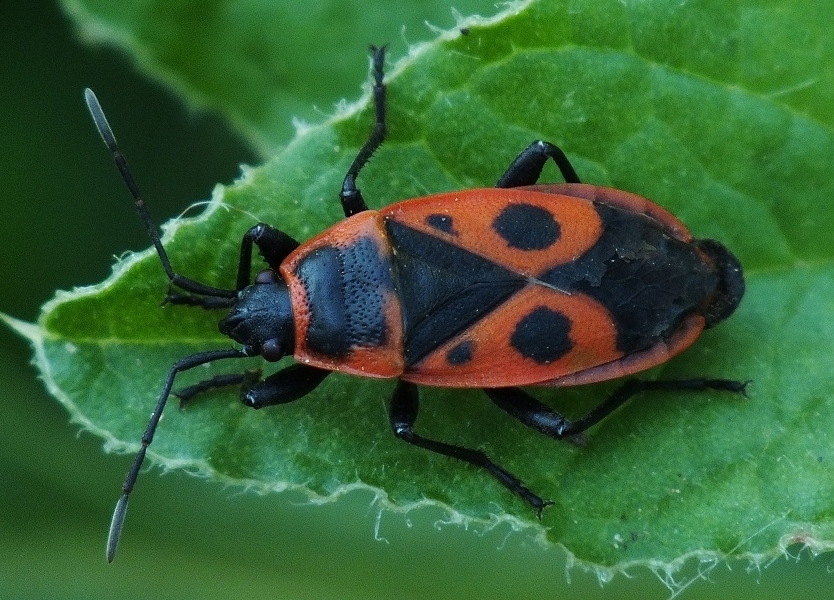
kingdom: Animalia
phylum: Arthropoda
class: Insecta
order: Hemiptera
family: Pyrrhocoridae
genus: Pyrrhocoris
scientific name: Pyrrhocoris apterus
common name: Firebug
